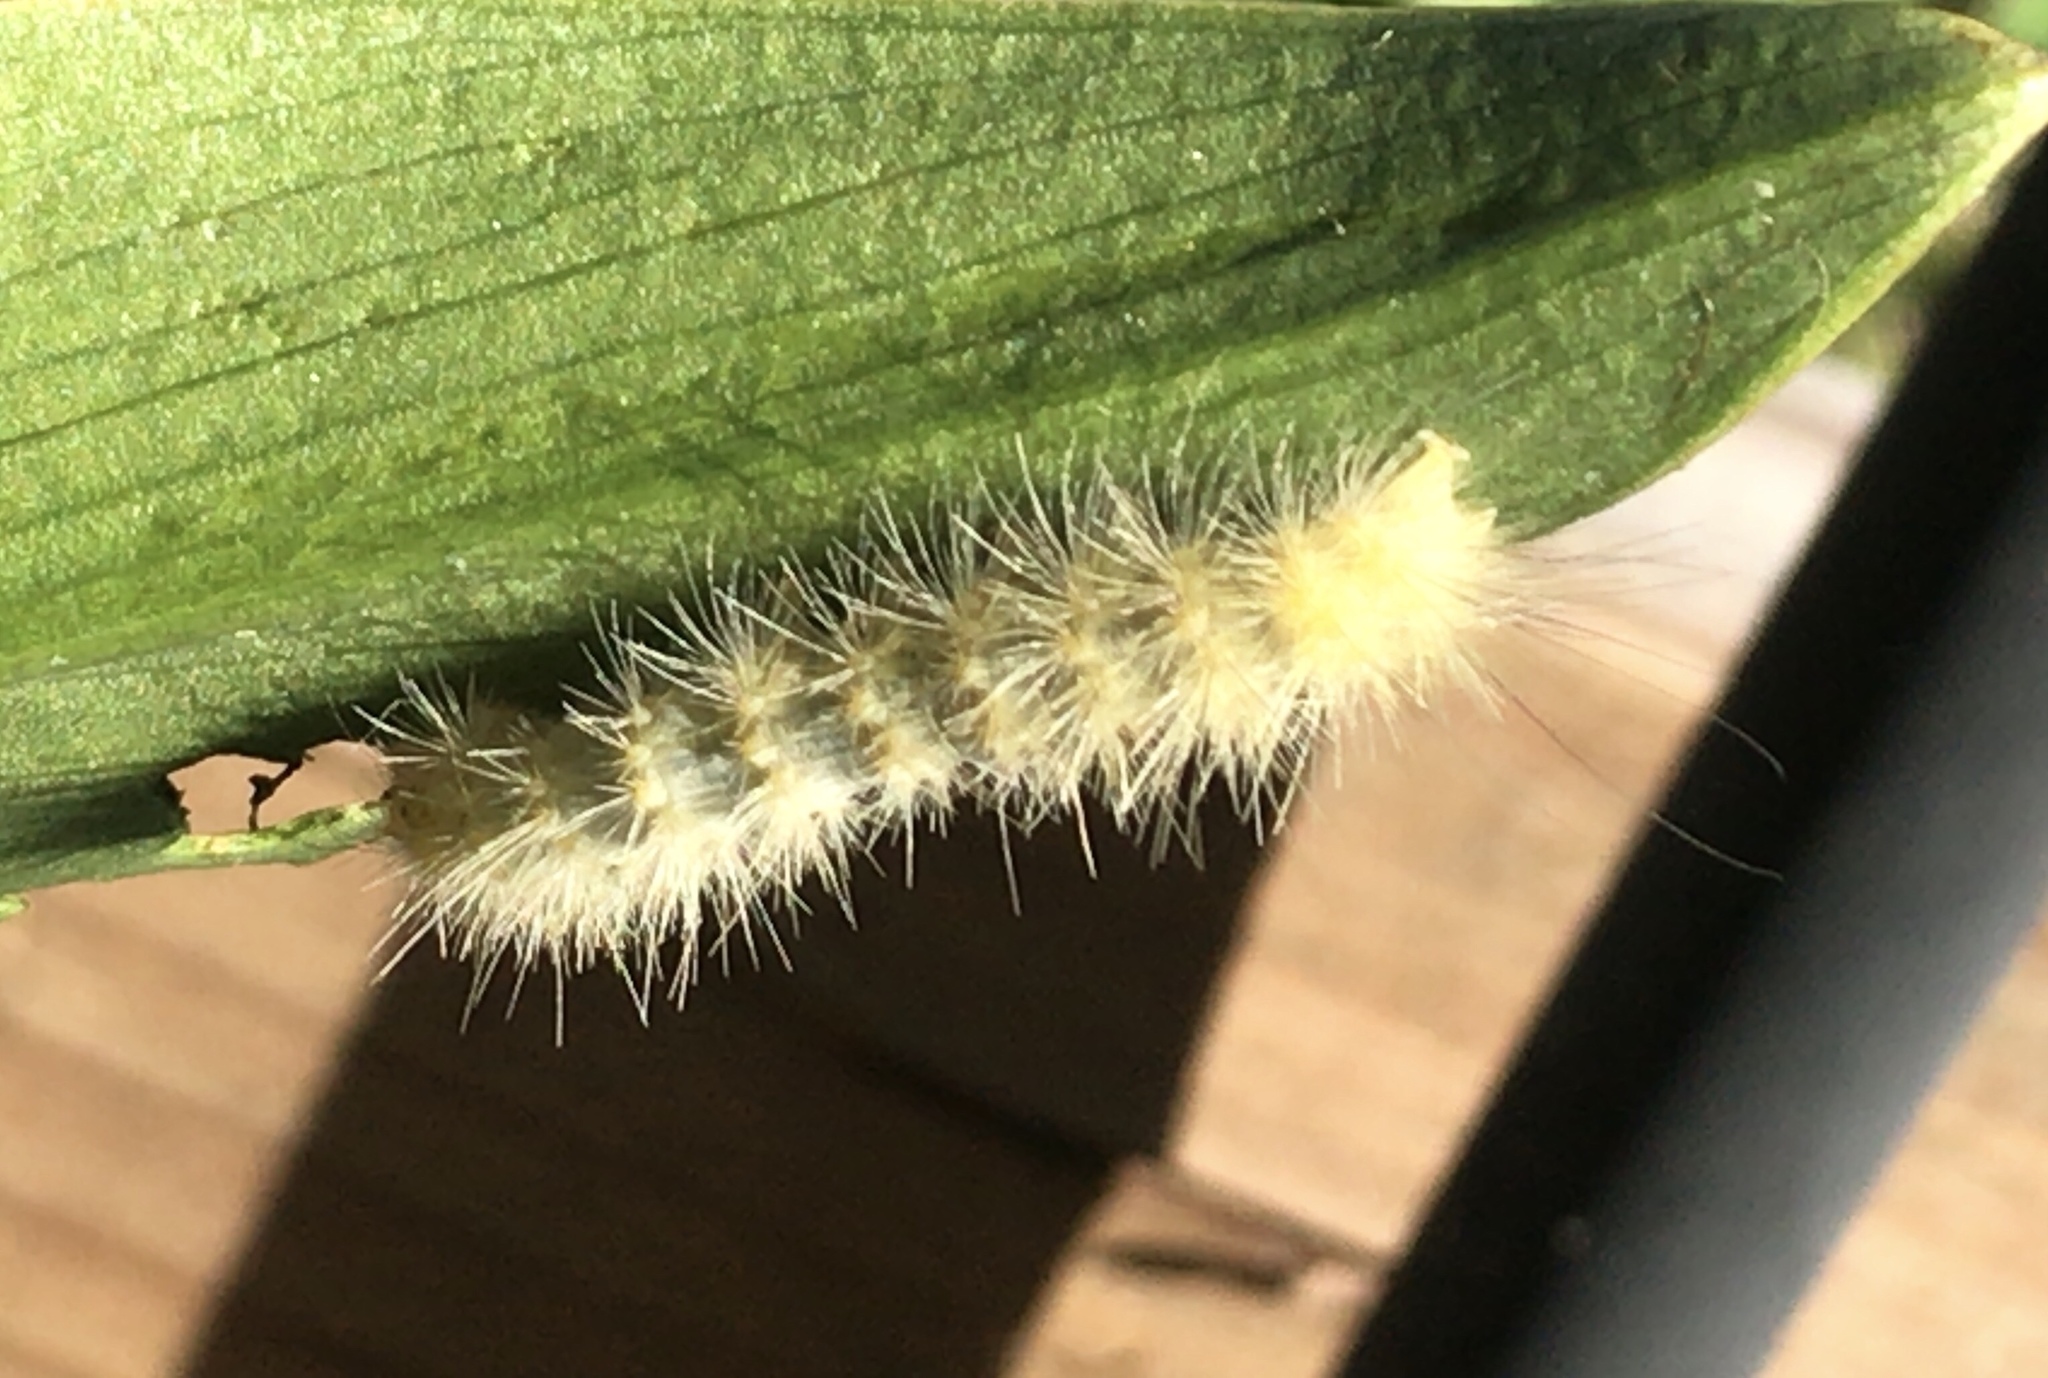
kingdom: Animalia
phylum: Arthropoda
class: Insecta
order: Lepidoptera
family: Erebidae
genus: Spilosoma
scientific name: Spilosoma virginica
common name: Virginia tiger moth
